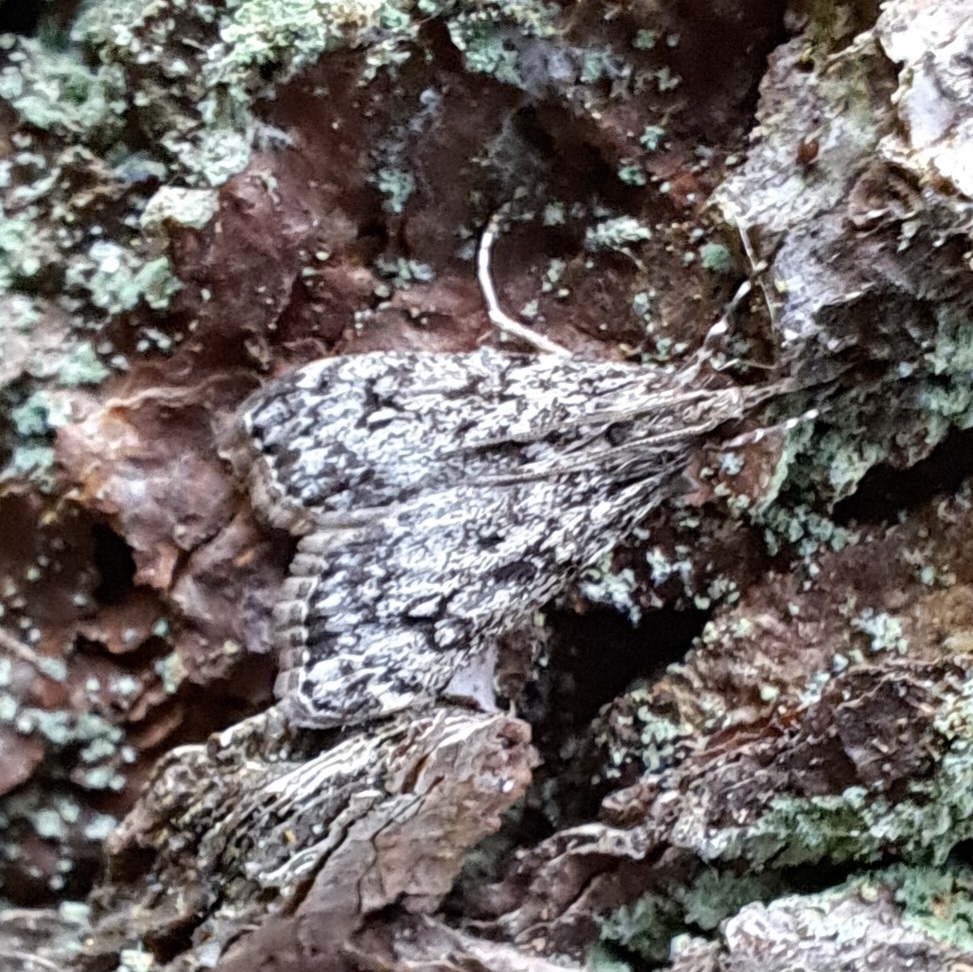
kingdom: Animalia
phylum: Arthropoda
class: Insecta
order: Lepidoptera
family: Crambidae
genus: Eudonia
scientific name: Eudonia lacustrata
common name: Little grey
